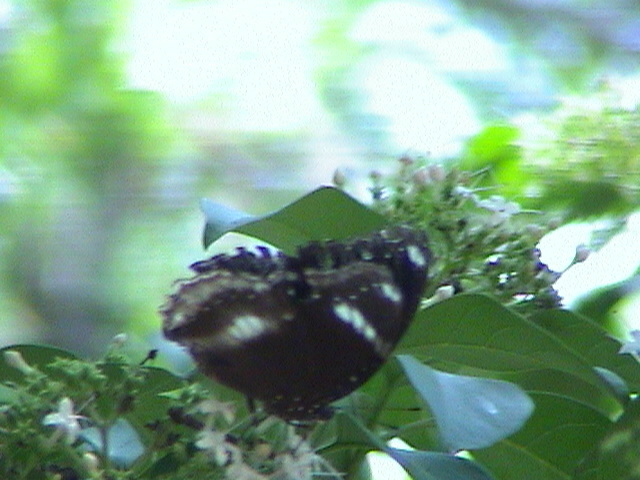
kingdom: Animalia
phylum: Arthropoda
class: Insecta
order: Lepidoptera
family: Nymphalidae
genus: Hypolimnas
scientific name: Hypolimnas bolina
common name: Great eggfly
